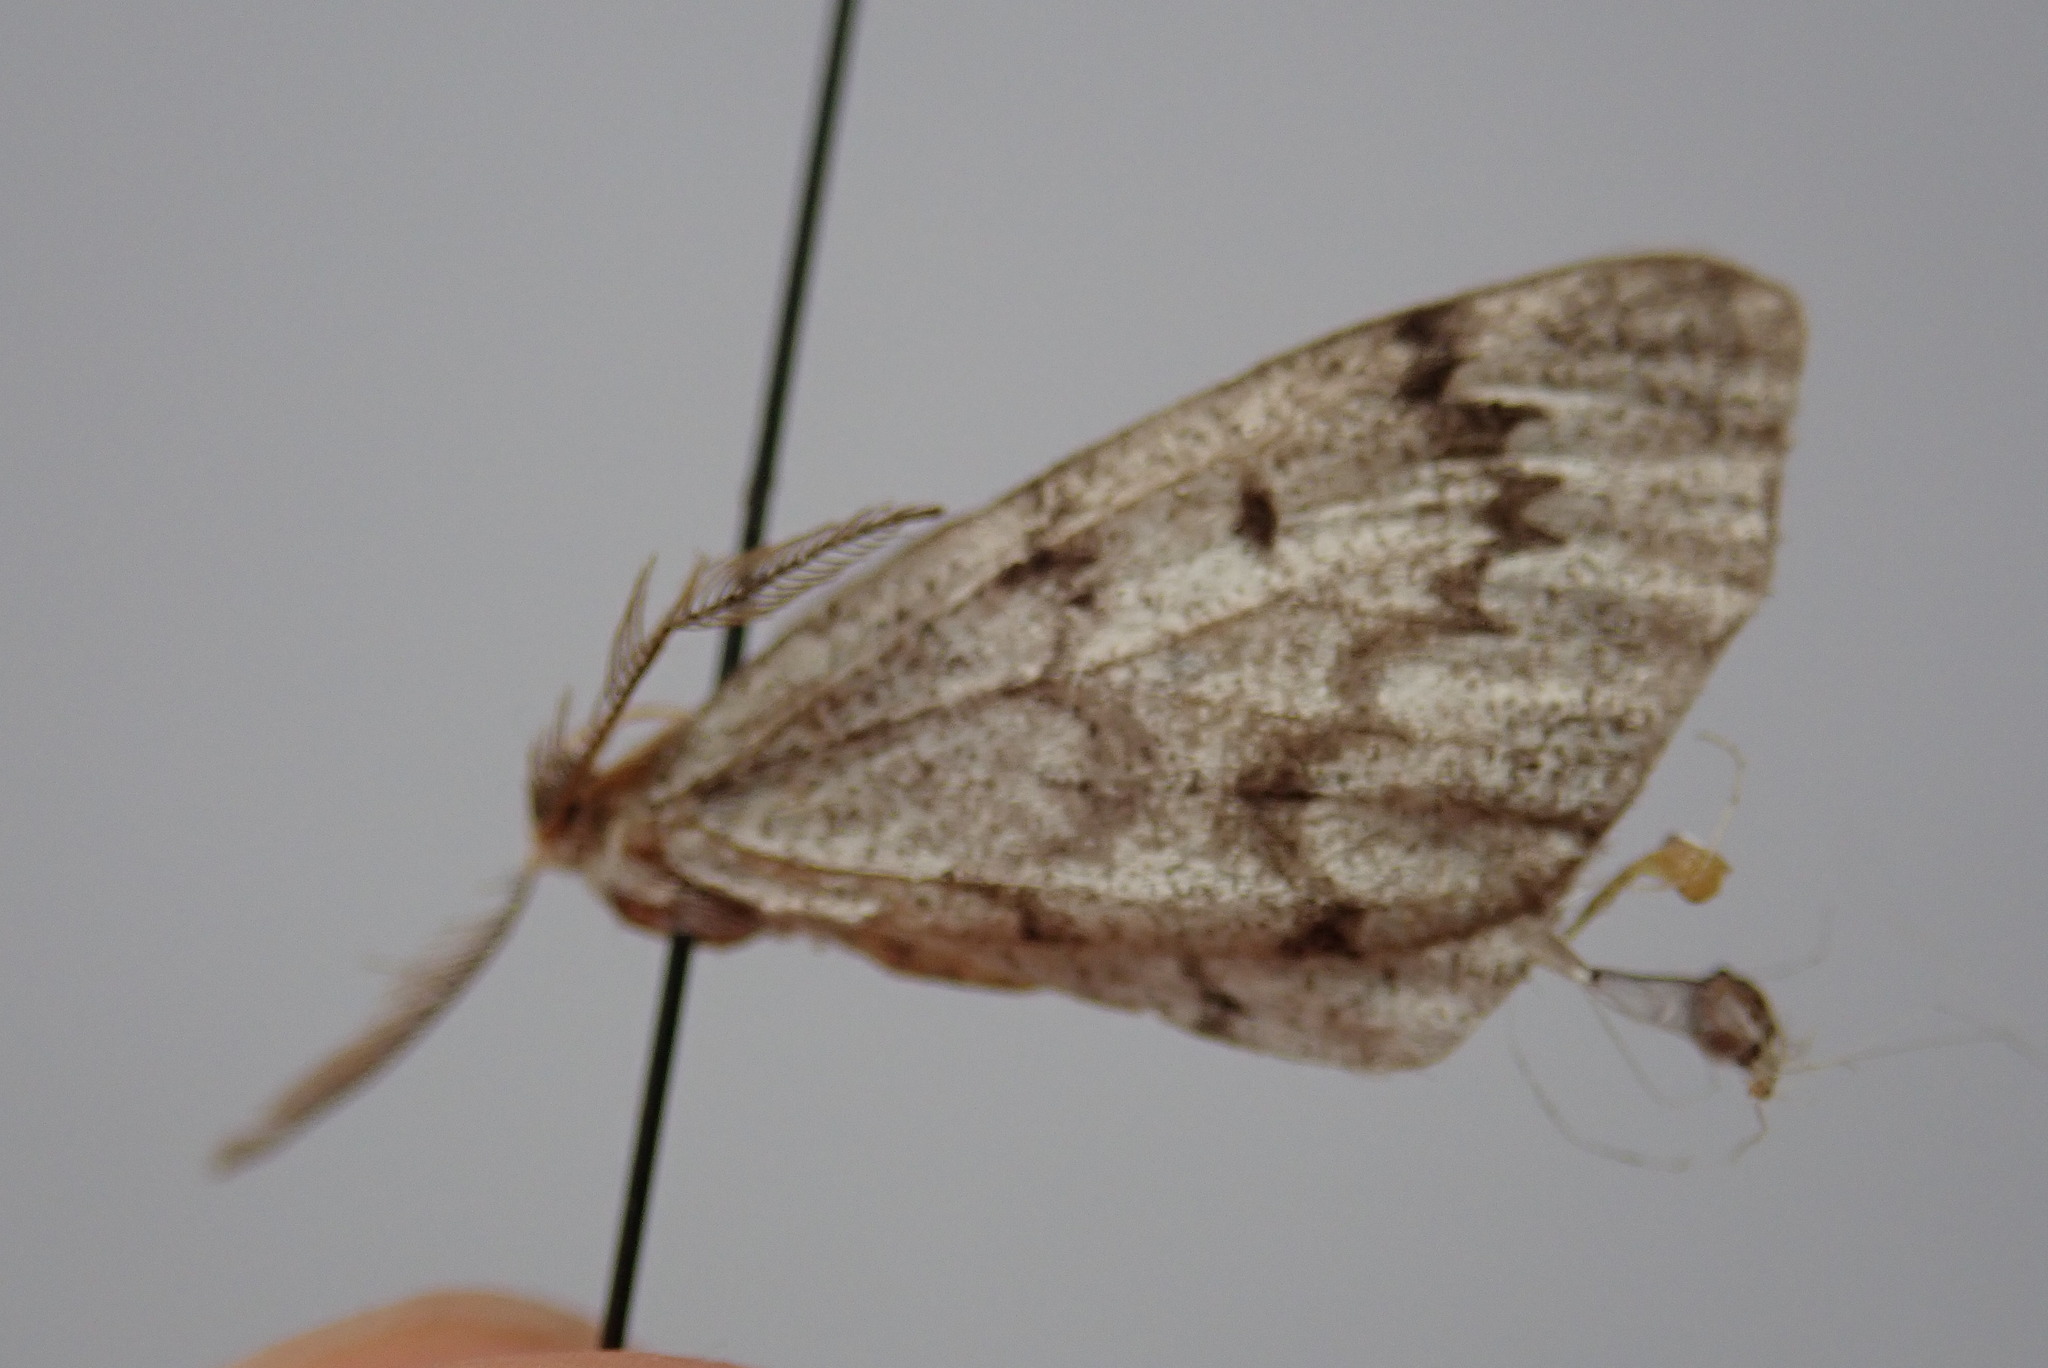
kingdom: Animalia
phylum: Arthropoda
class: Insecta
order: Lepidoptera
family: Geometridae
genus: Nepytia
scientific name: Nepytia canosaria
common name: False hemlock looper
